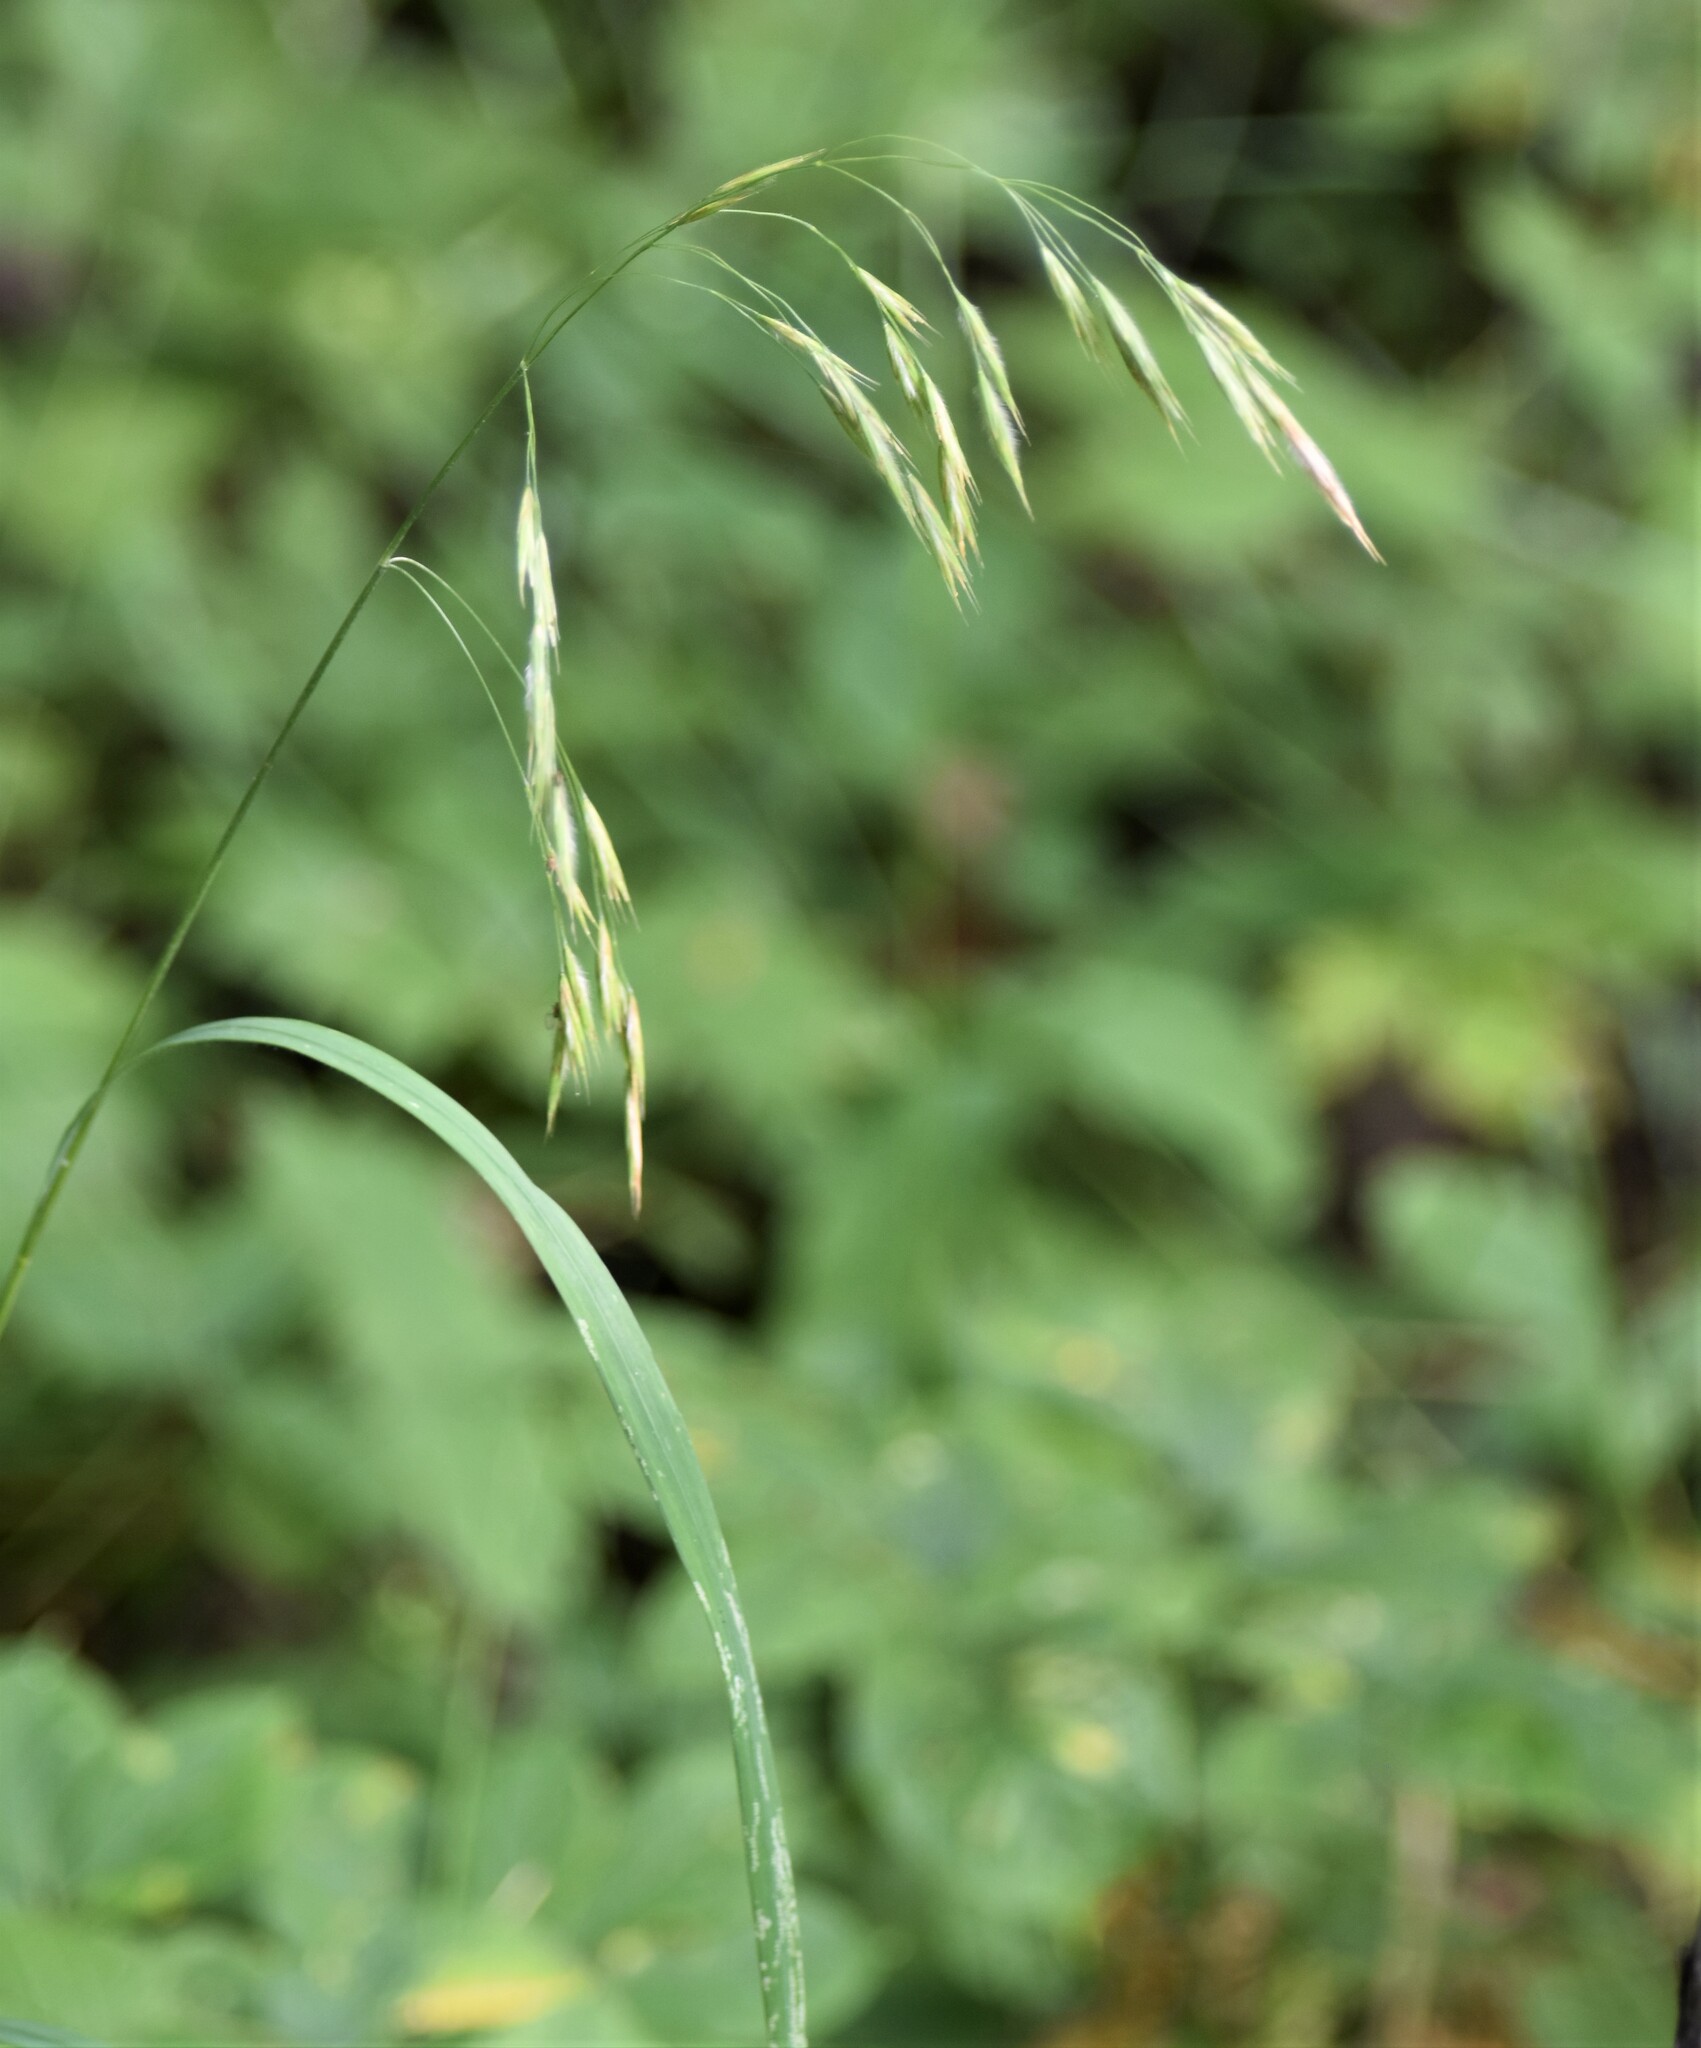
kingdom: Plantae
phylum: Tracheophyta
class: Liliopsida
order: Poales
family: Poaceae
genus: Bromus
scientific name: Bromus ciliatus
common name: Fringe brome
